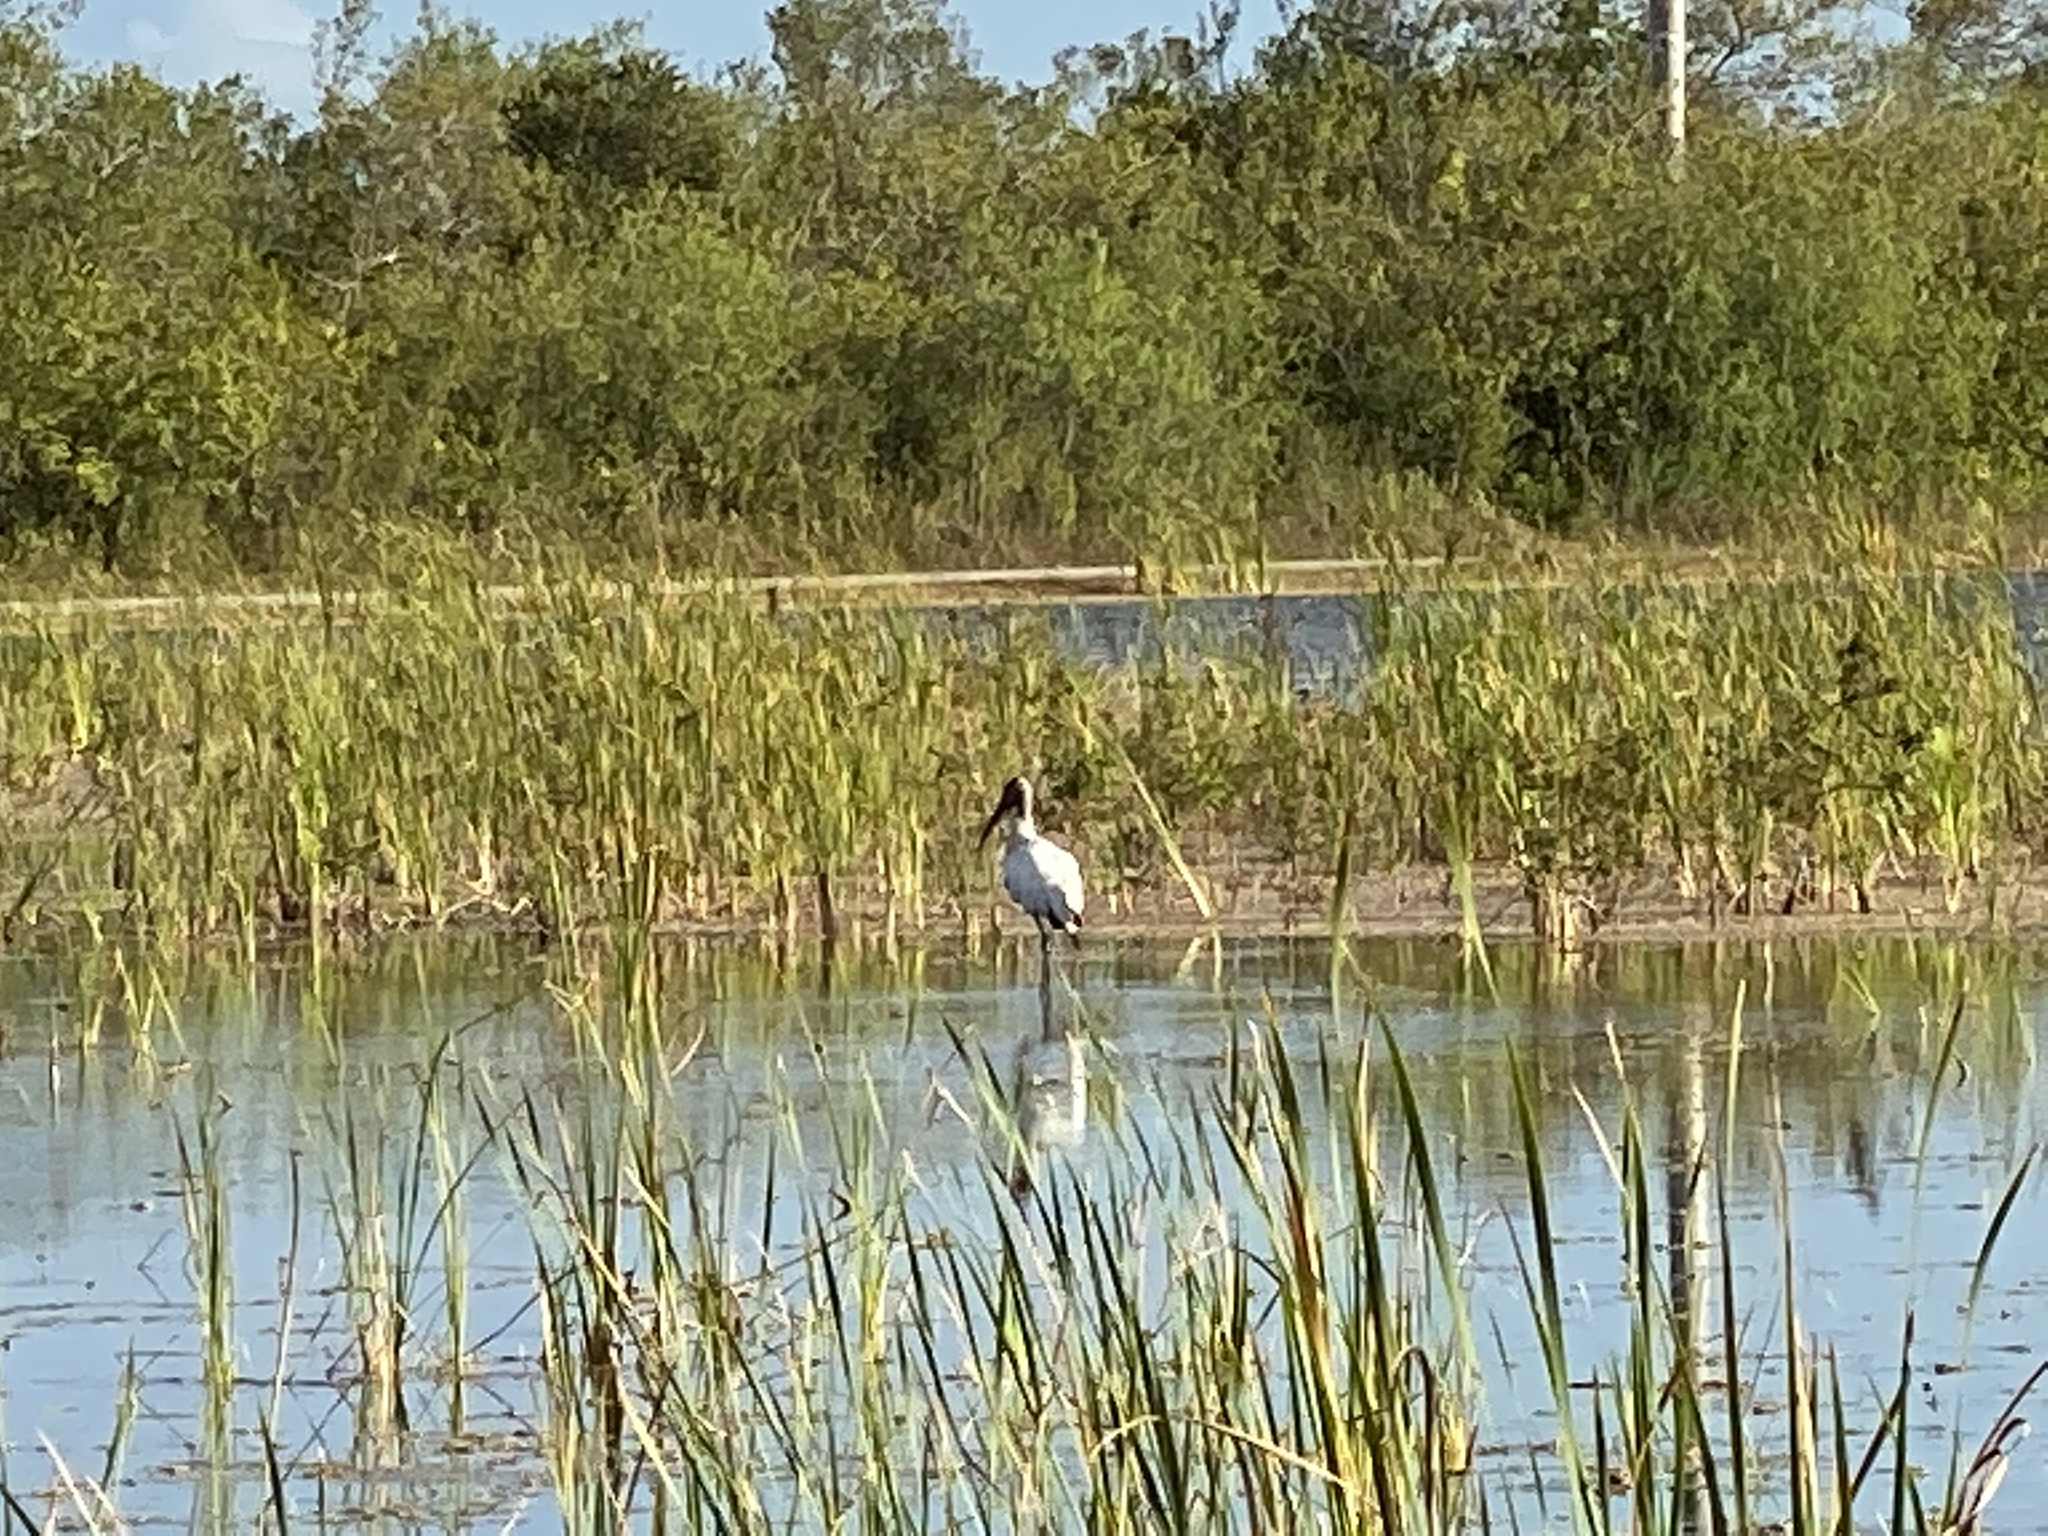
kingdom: Animalia
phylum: Chordata
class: Aves
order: Ciconiiformes
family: Ciconiidae
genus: Mycteria
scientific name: Mycteria americana
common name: Wood stork
